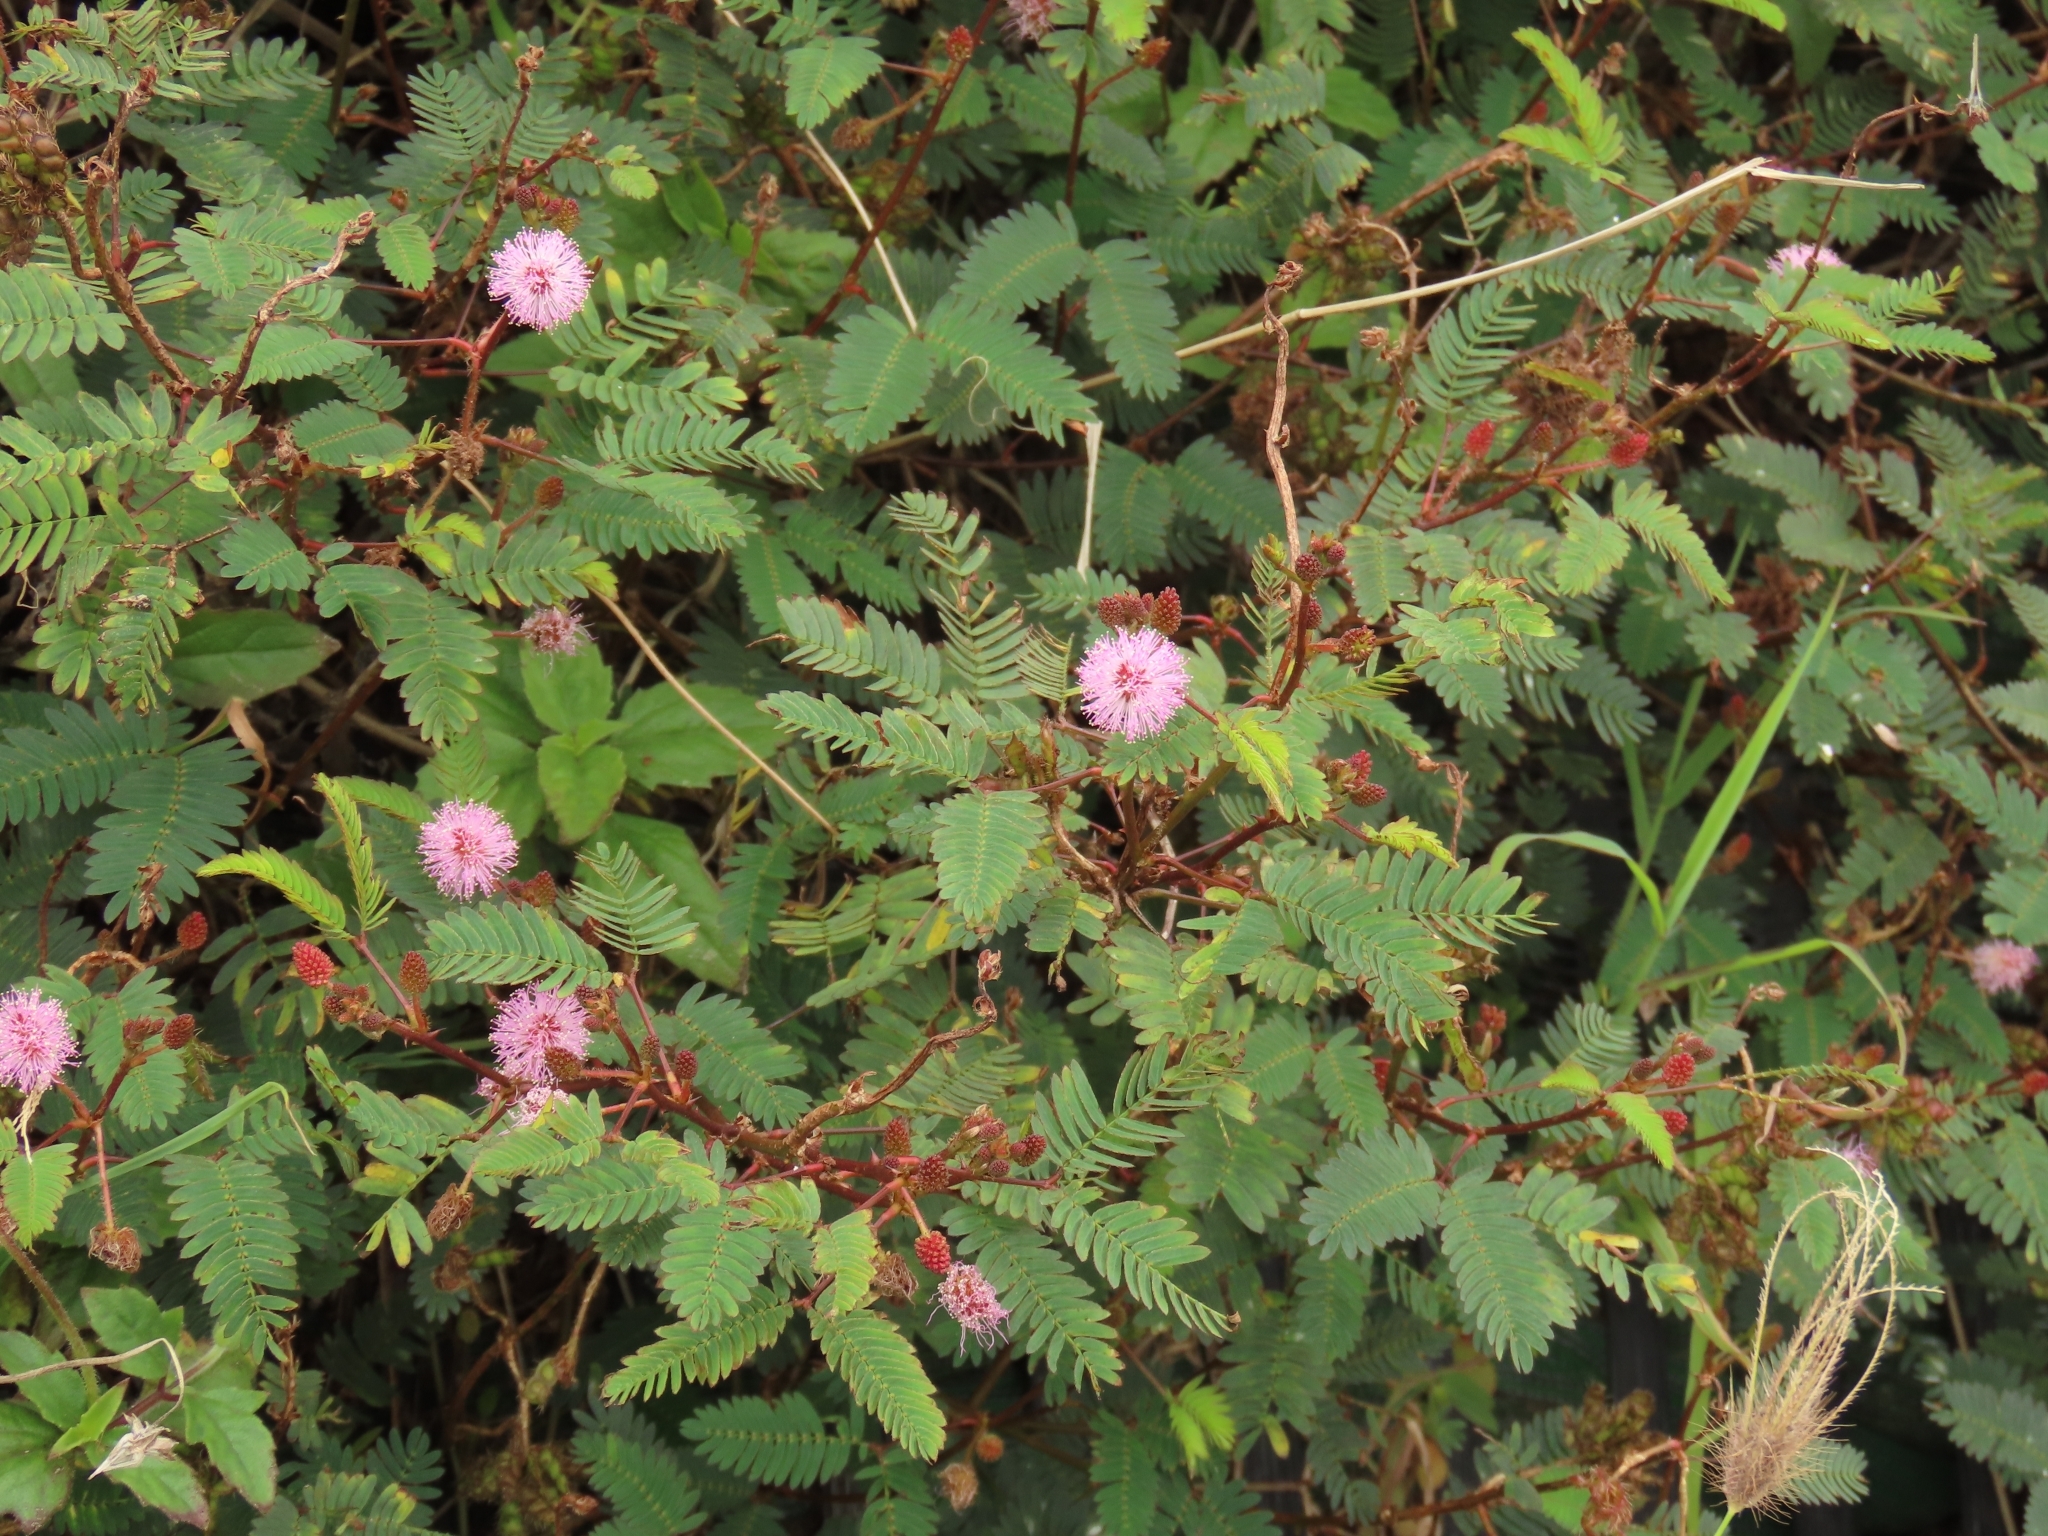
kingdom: Plantae
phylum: Tracheophyta
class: Magnoliopsida
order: Fabales
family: Fabaceae
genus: Mimosa
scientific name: Mimosa pudica
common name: Sensitive plant
